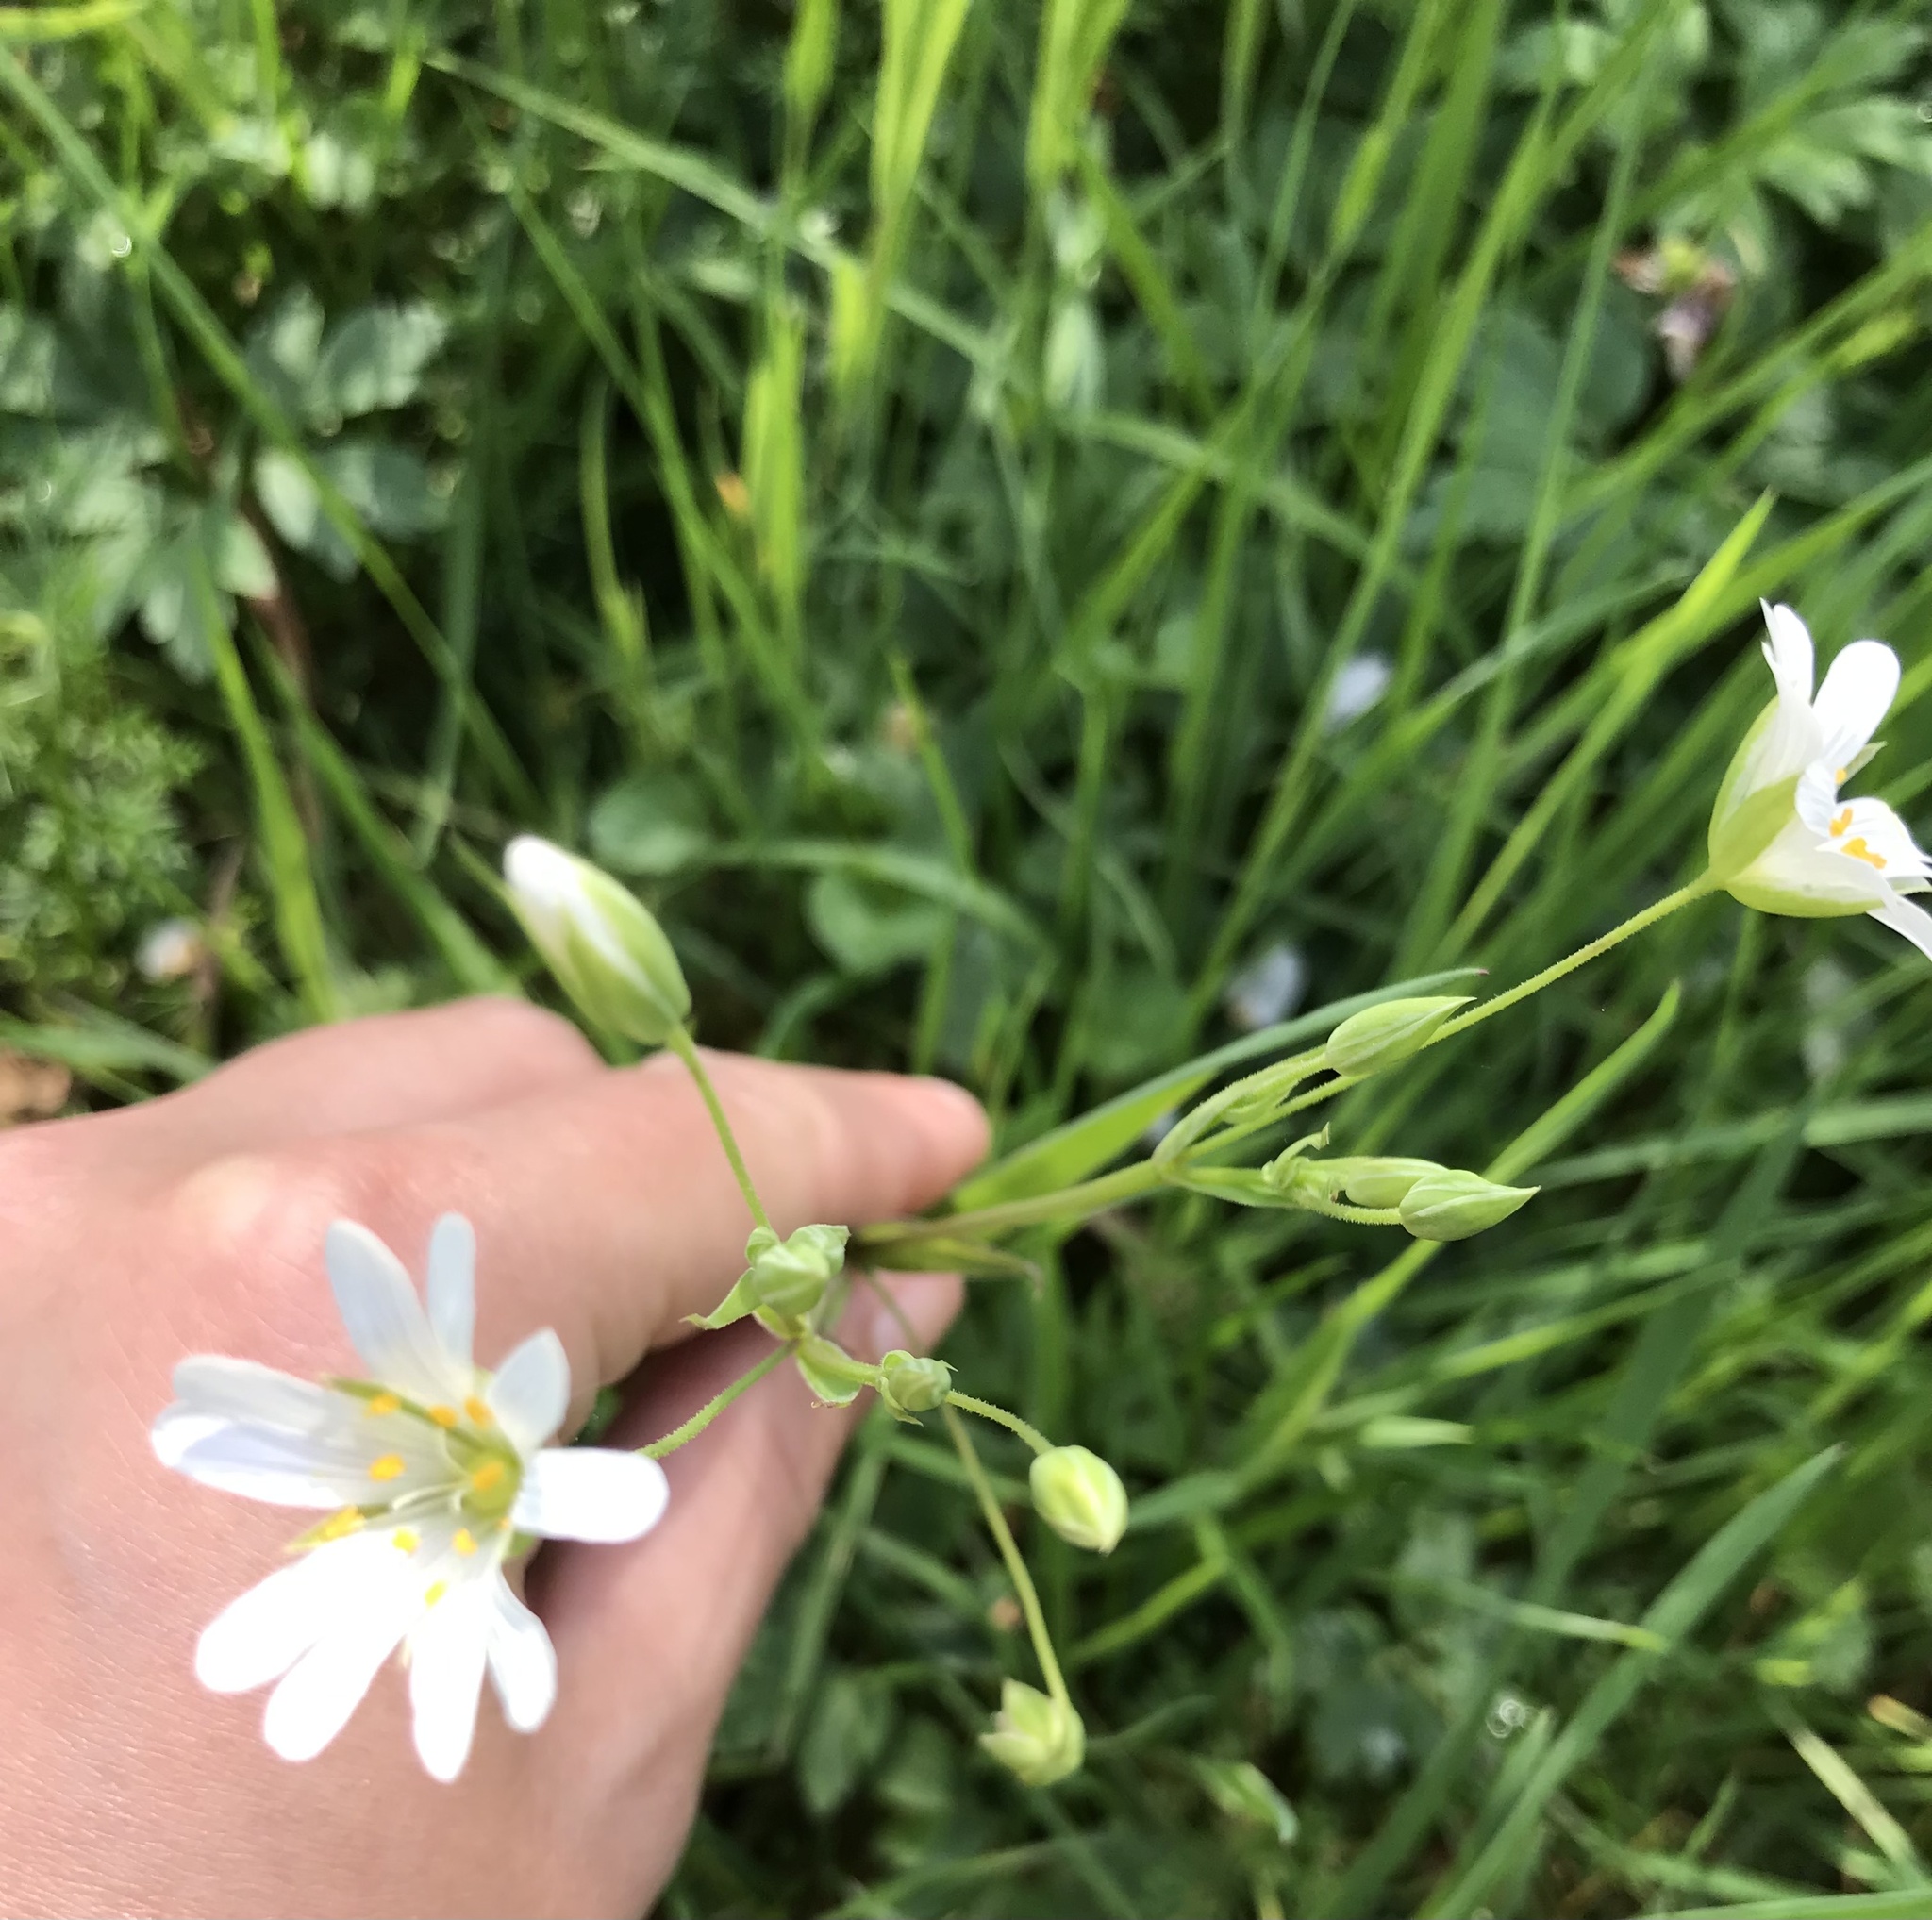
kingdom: Plantae
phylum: Tracheophyta
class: Magnoliopsida
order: Caryophyllales
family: Caryophyllaceae
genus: Rabelera
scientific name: Rabelera holostea
